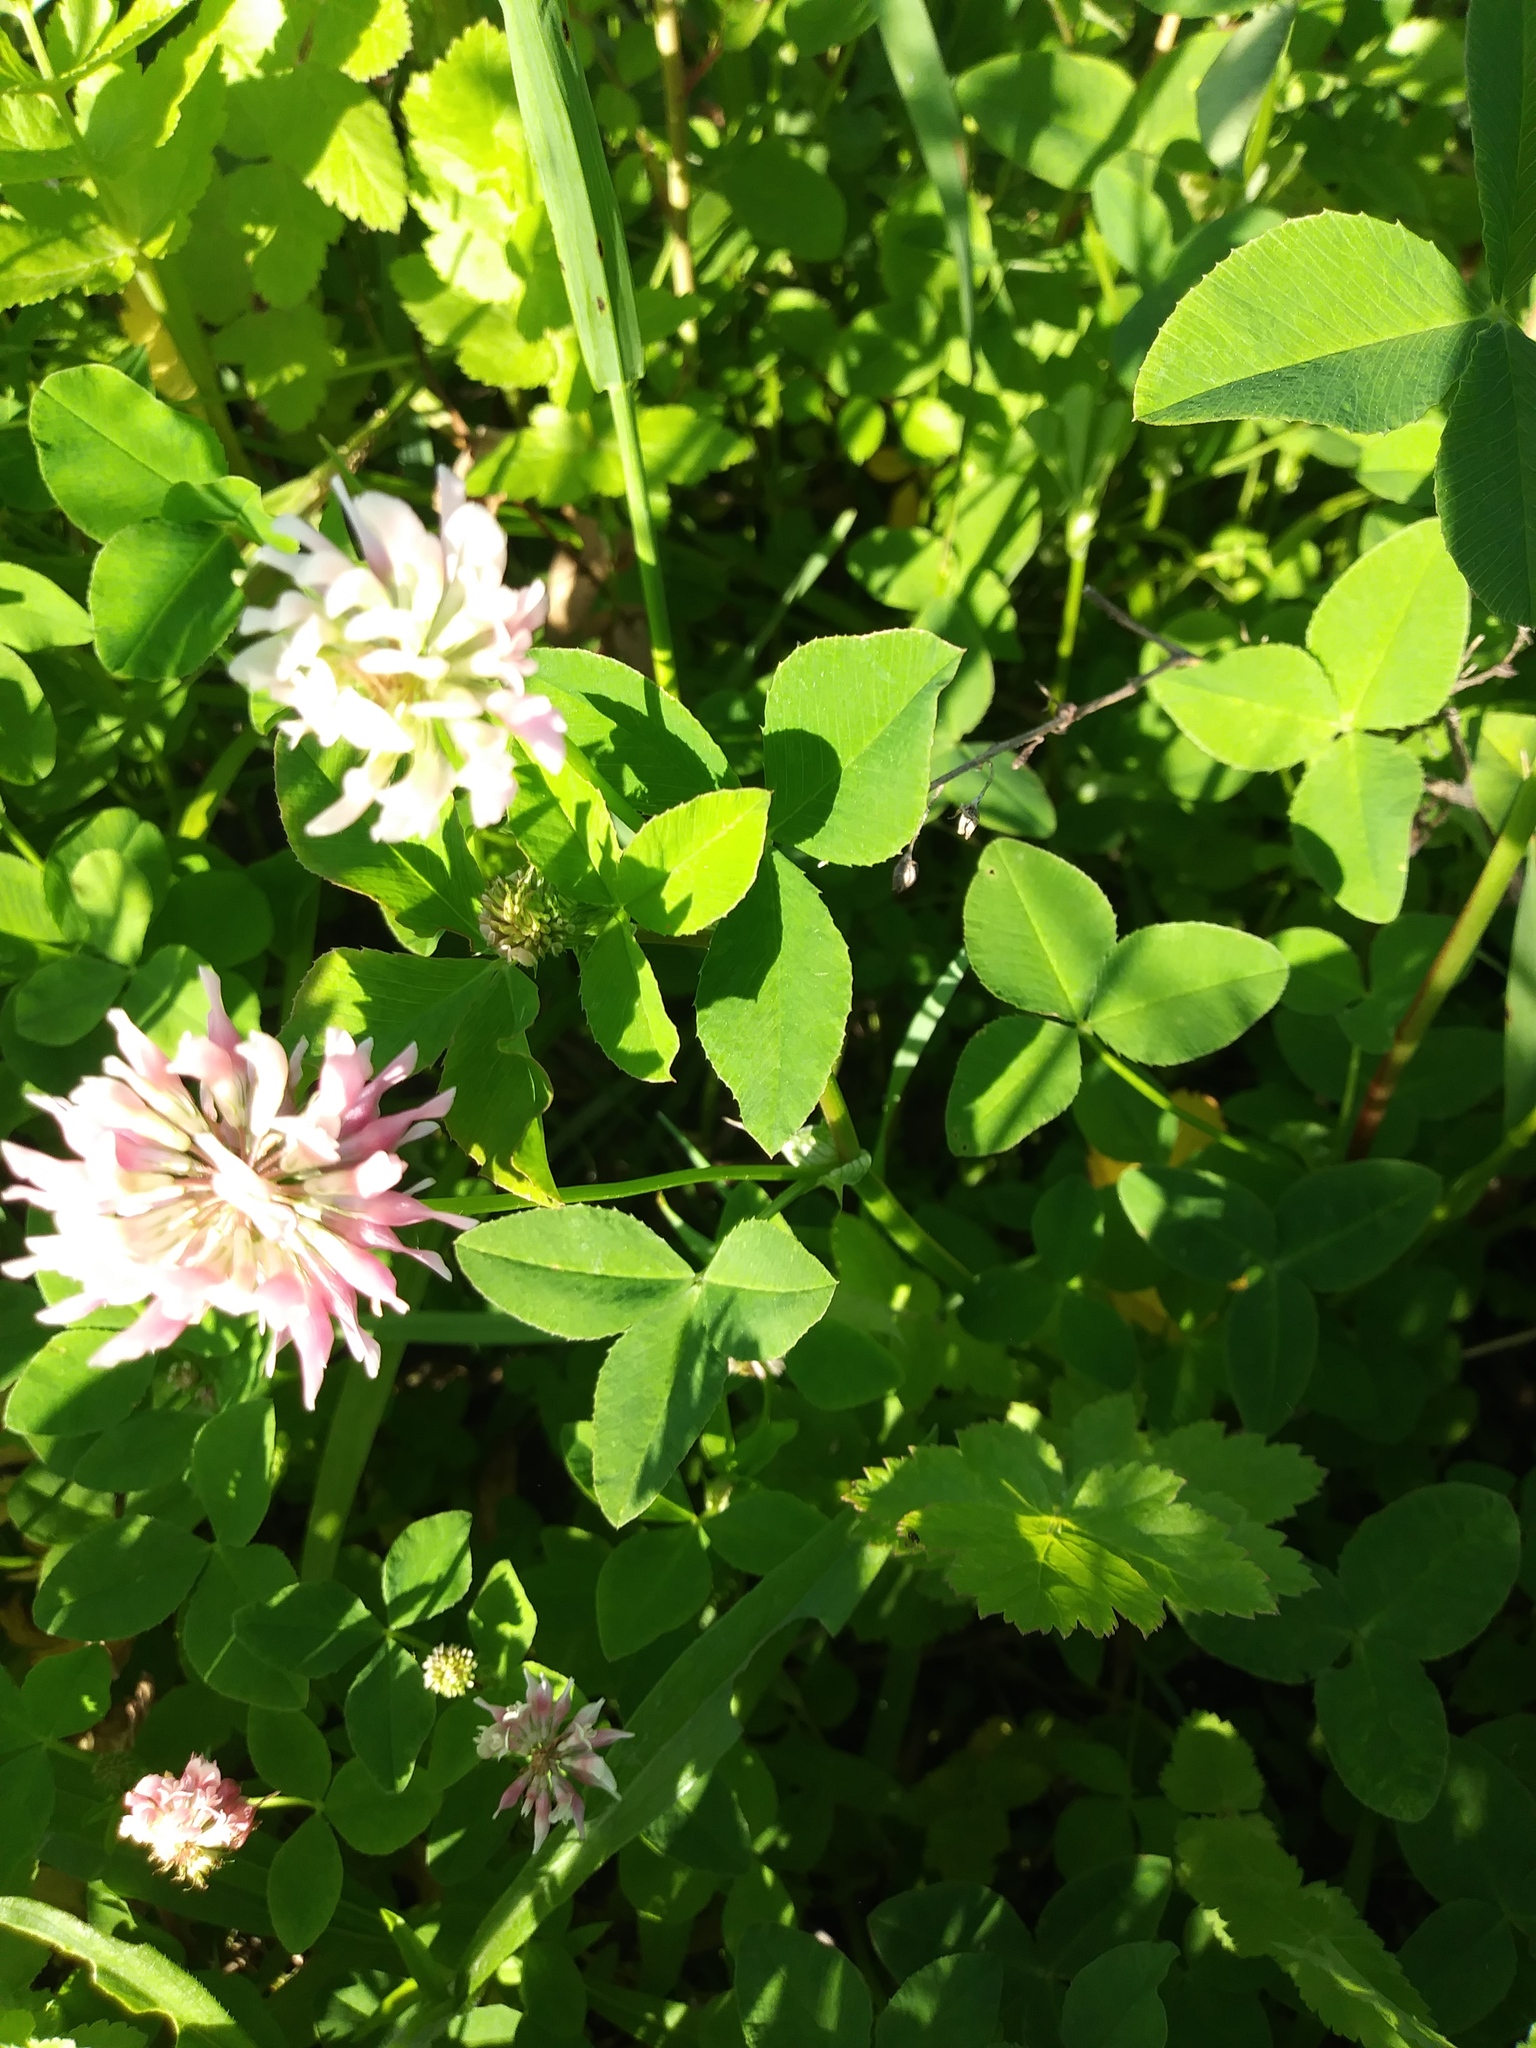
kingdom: Plantae
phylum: Tracheophyta
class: Magnoliopsida
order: Fabales
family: Fabaceae
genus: Trifolium
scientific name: Trifolium hybridum
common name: Alsike clover
